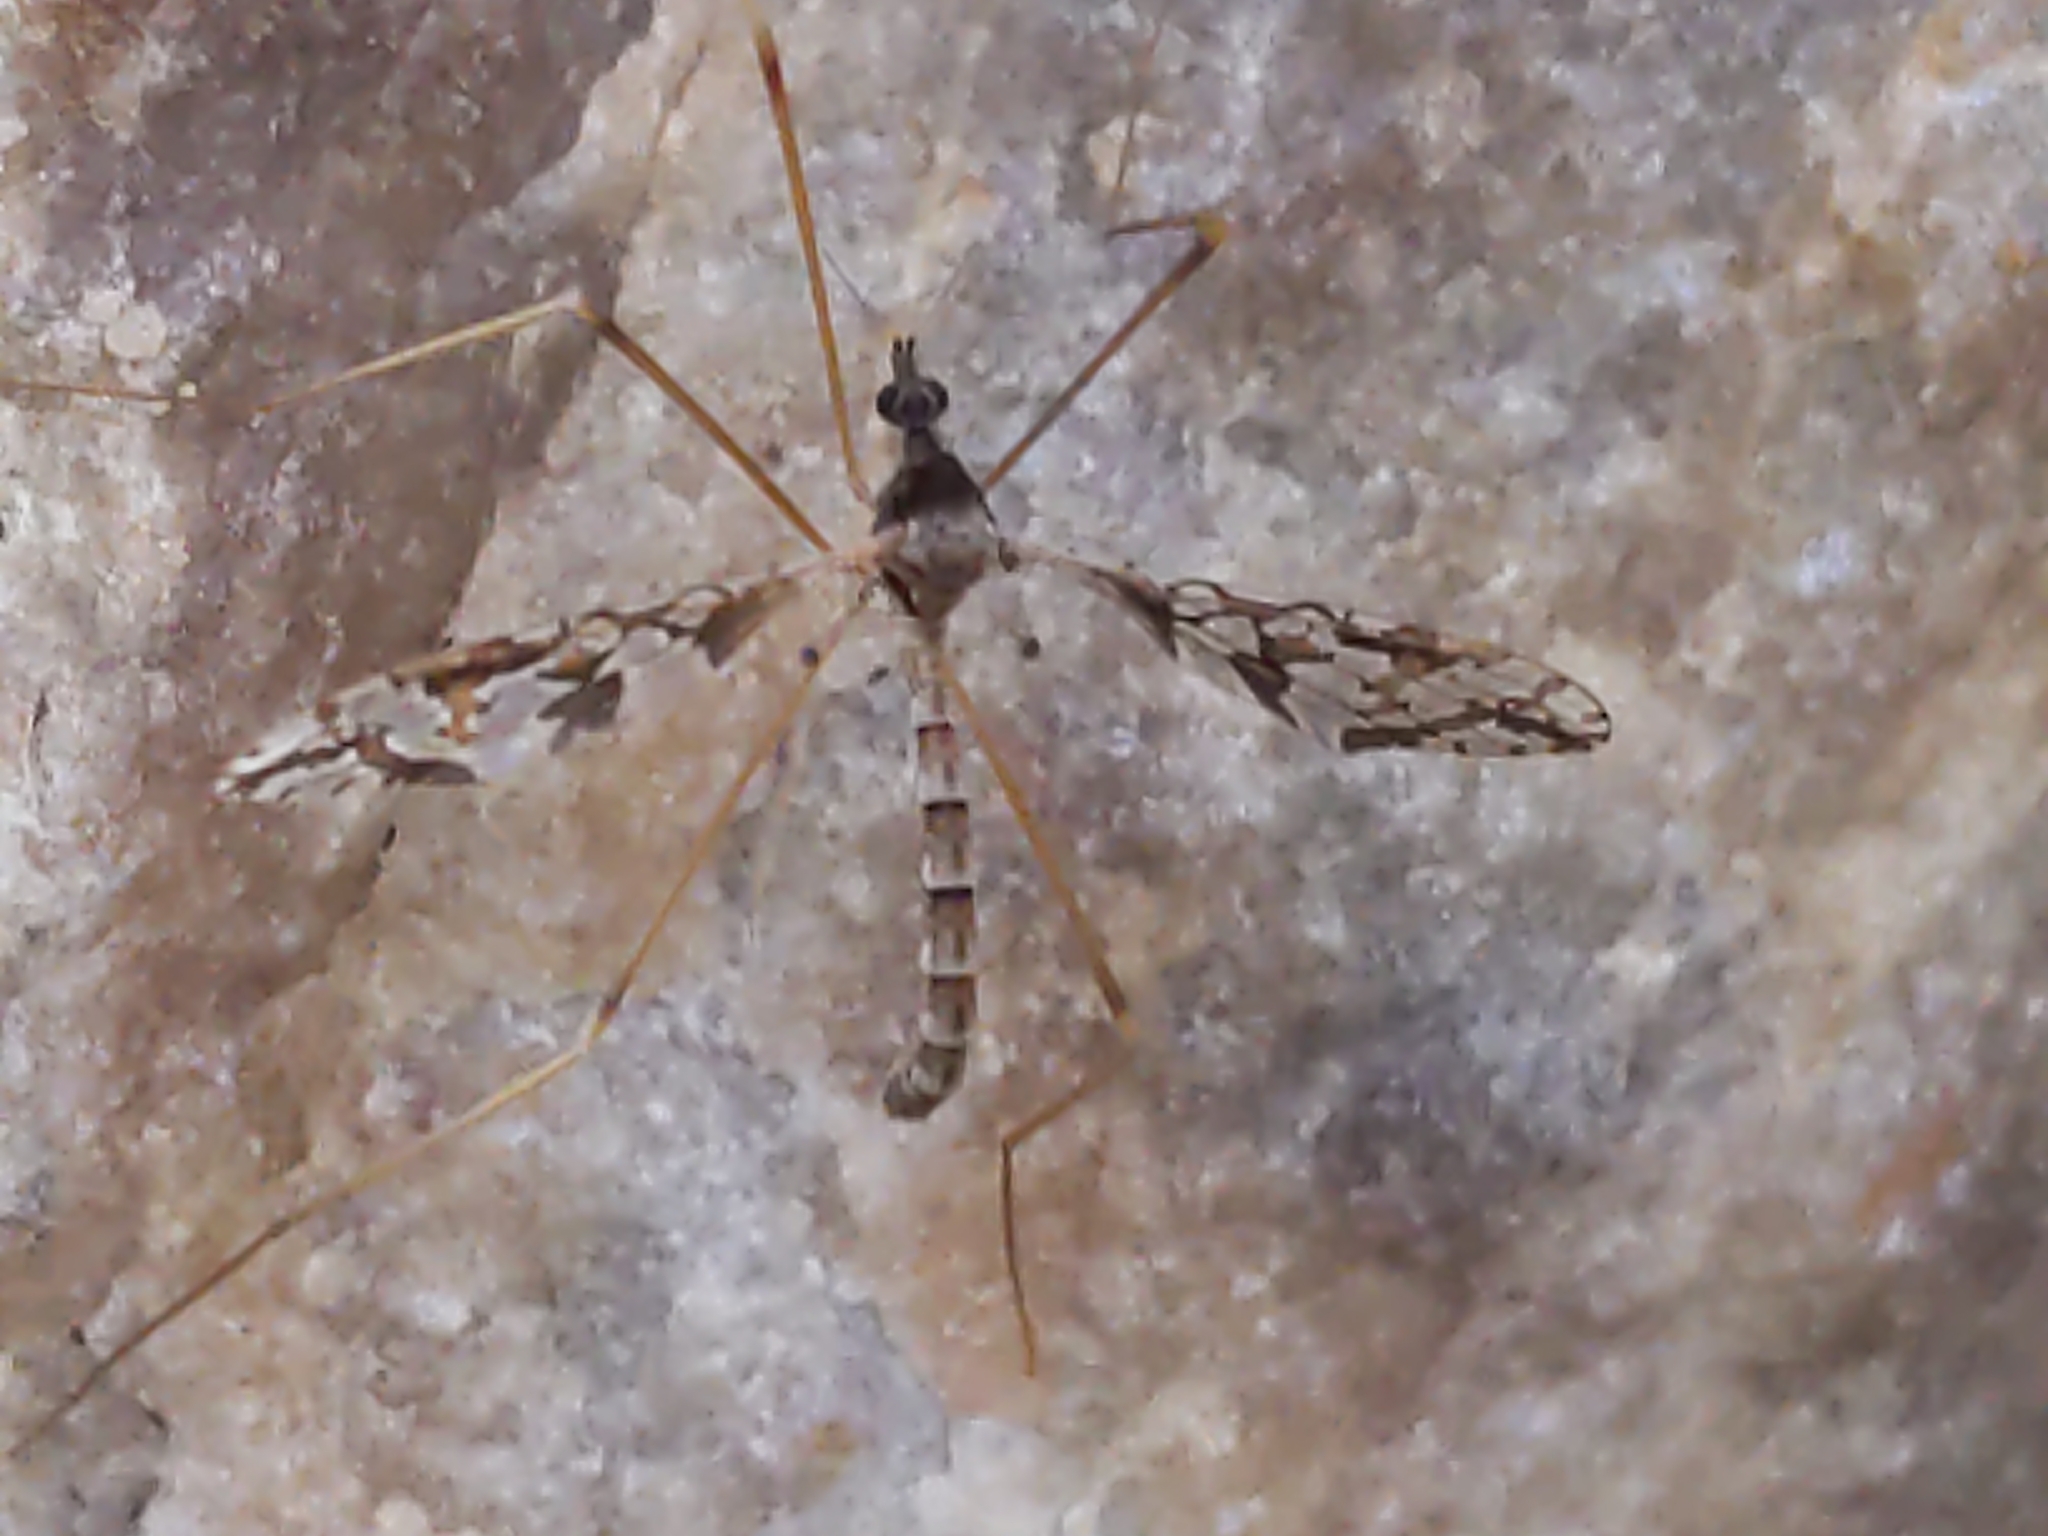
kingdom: Animalia
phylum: Arthropoda
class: Insecta
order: Diptera
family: Limoniidae
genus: Epiphragma
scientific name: Epiphragma solatrix
